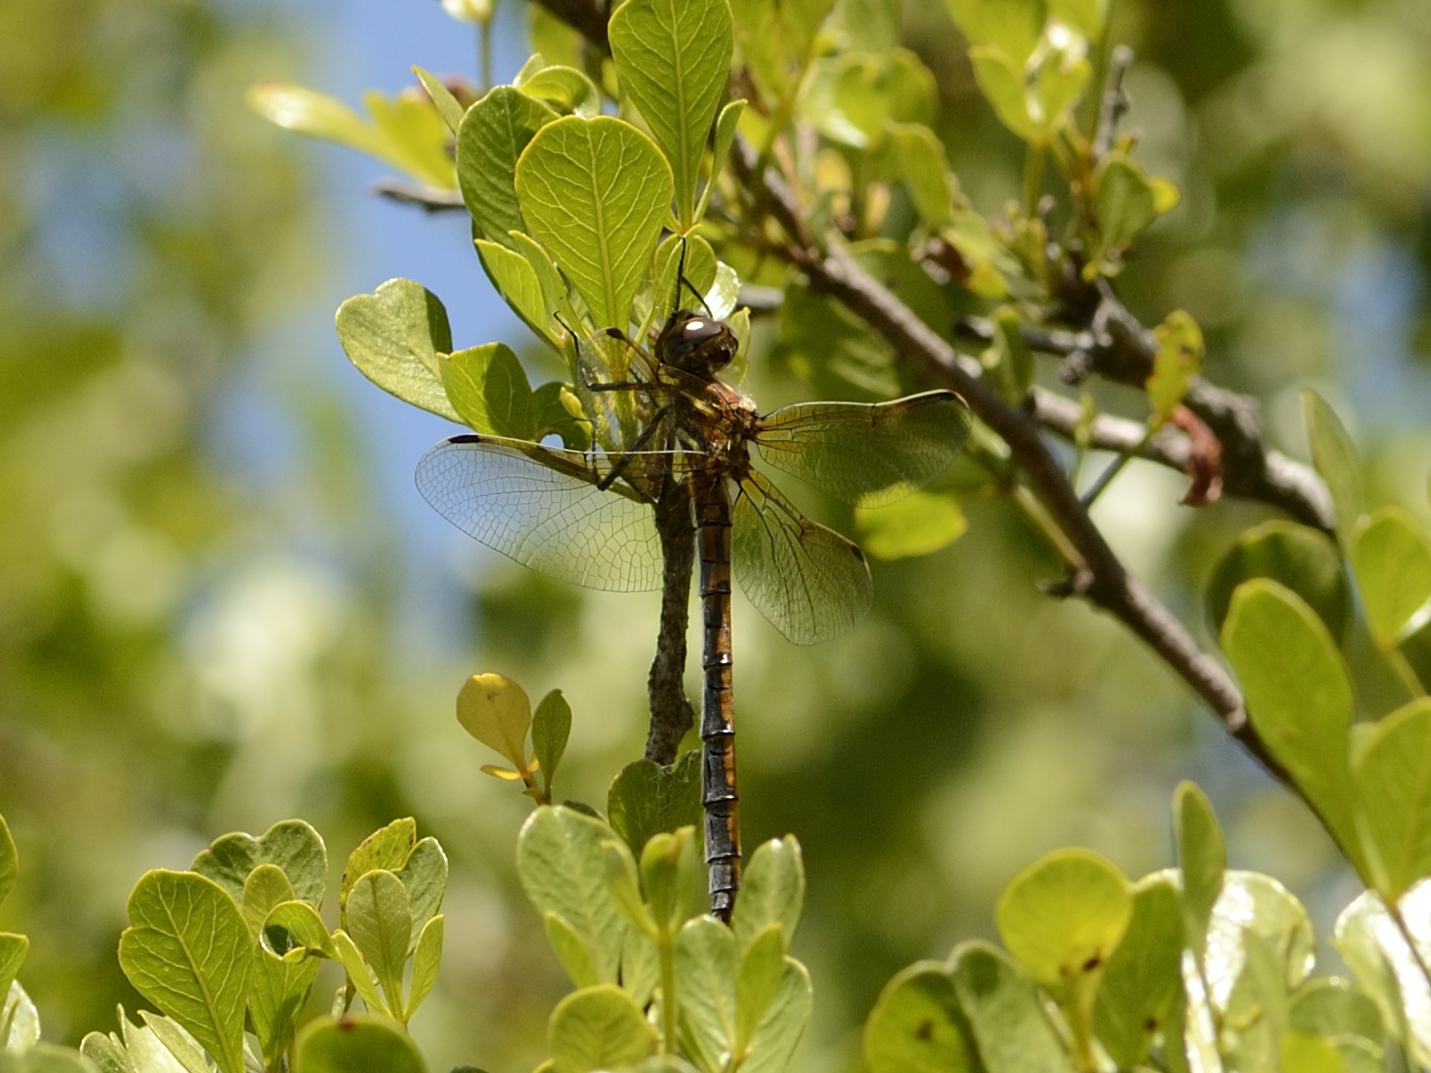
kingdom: Animalia
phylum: Arthropoda
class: Insecta
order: Odonata
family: Synthemistidae
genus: Syncordulia
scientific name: Syncordulia gracilis
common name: Yellow presba
